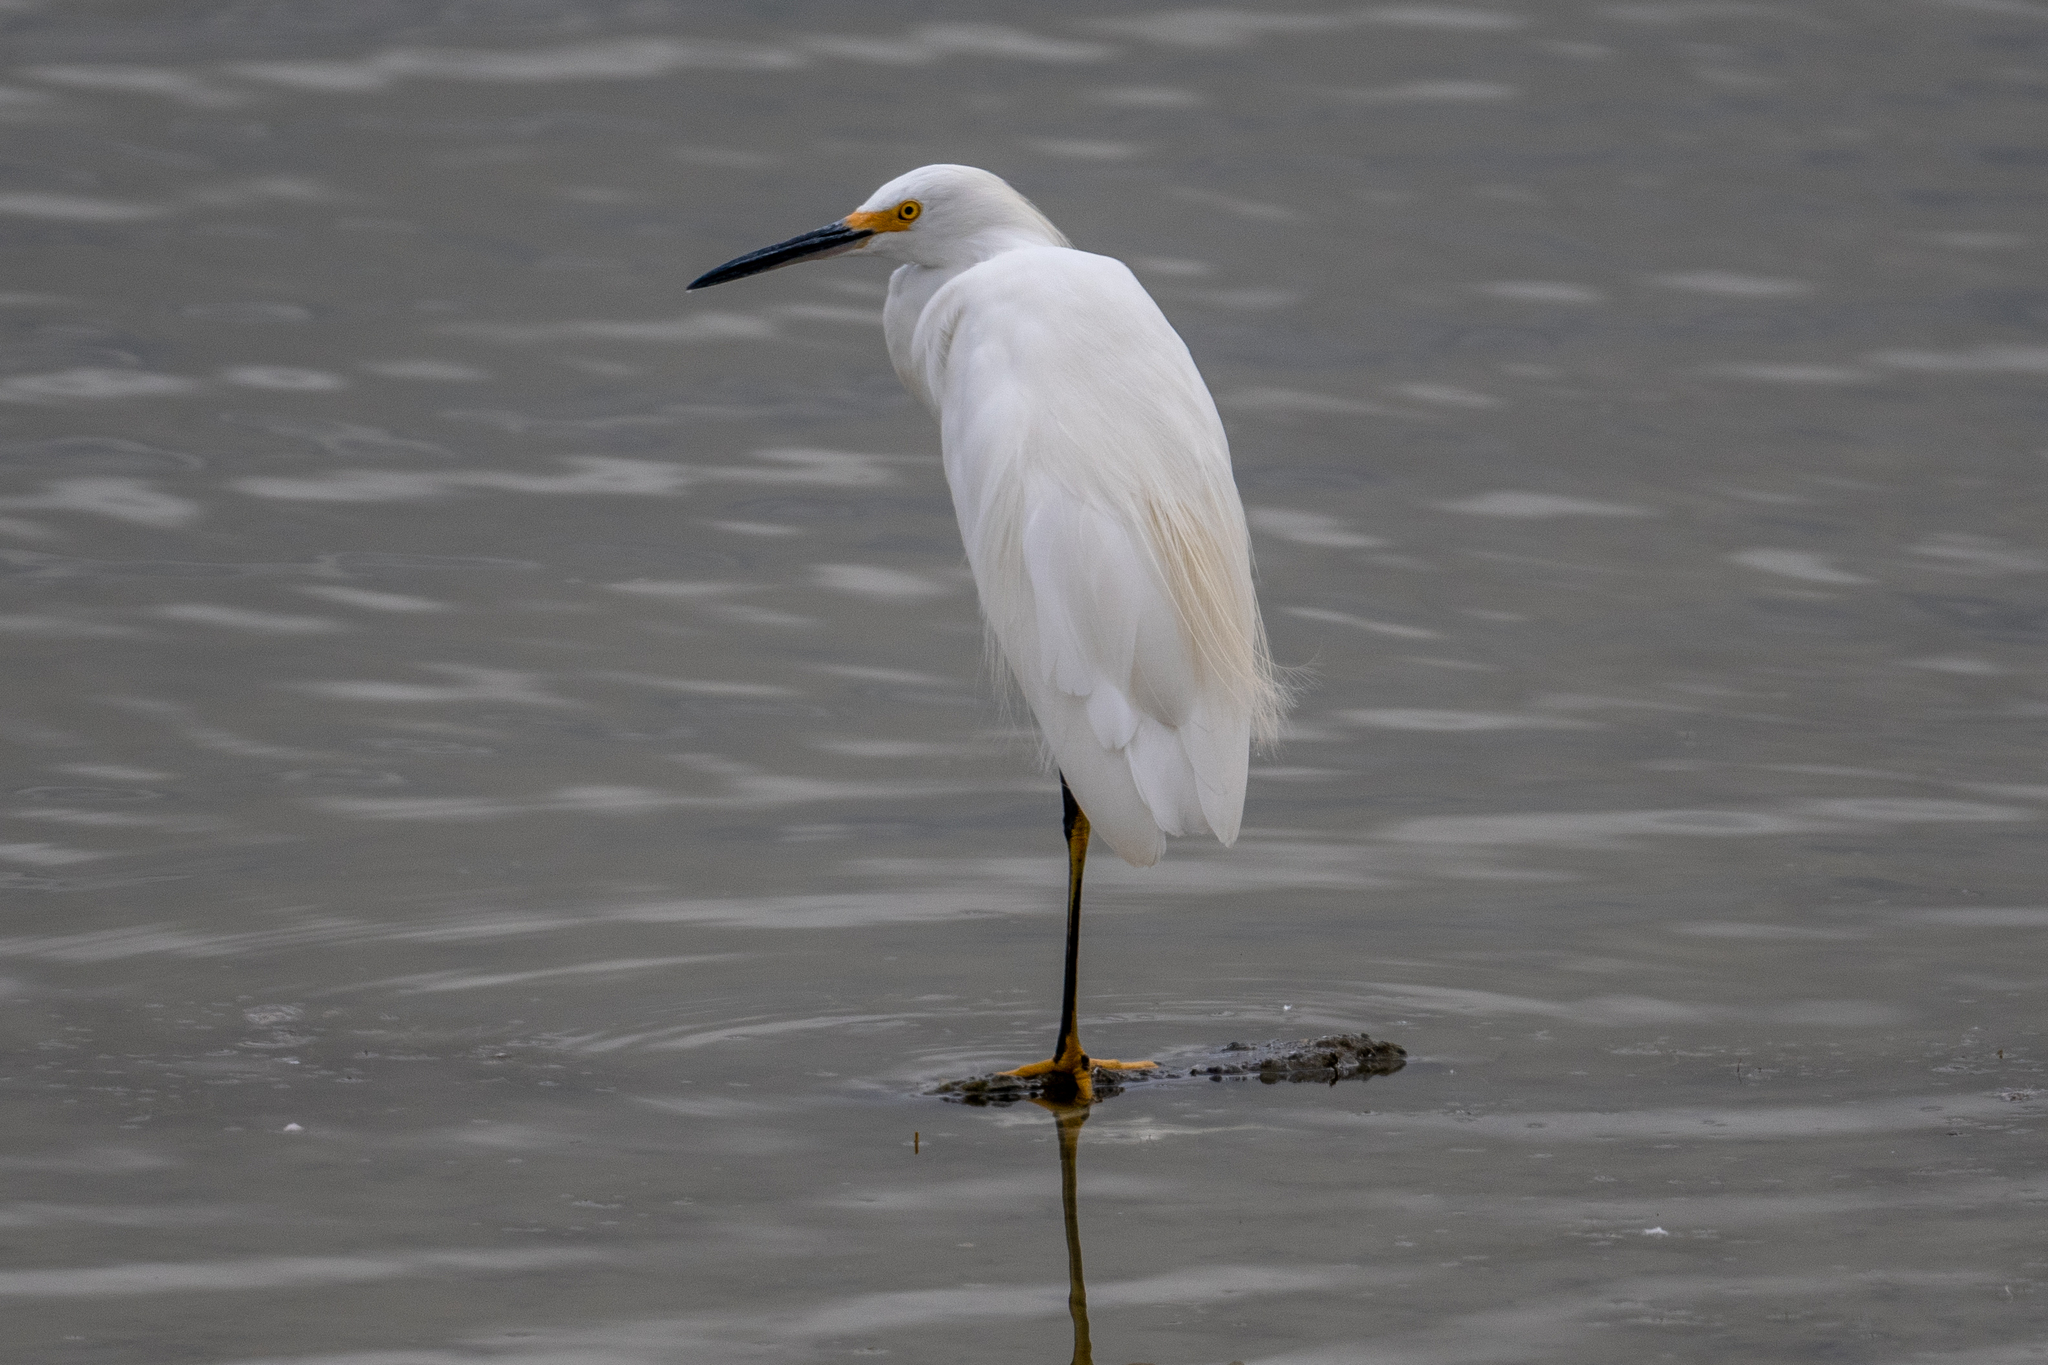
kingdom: Animalia
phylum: Chordata
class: Aves
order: Pelecaniformes
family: Ardeidae
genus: Egretta
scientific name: Egretta thula
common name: Snowy egret
